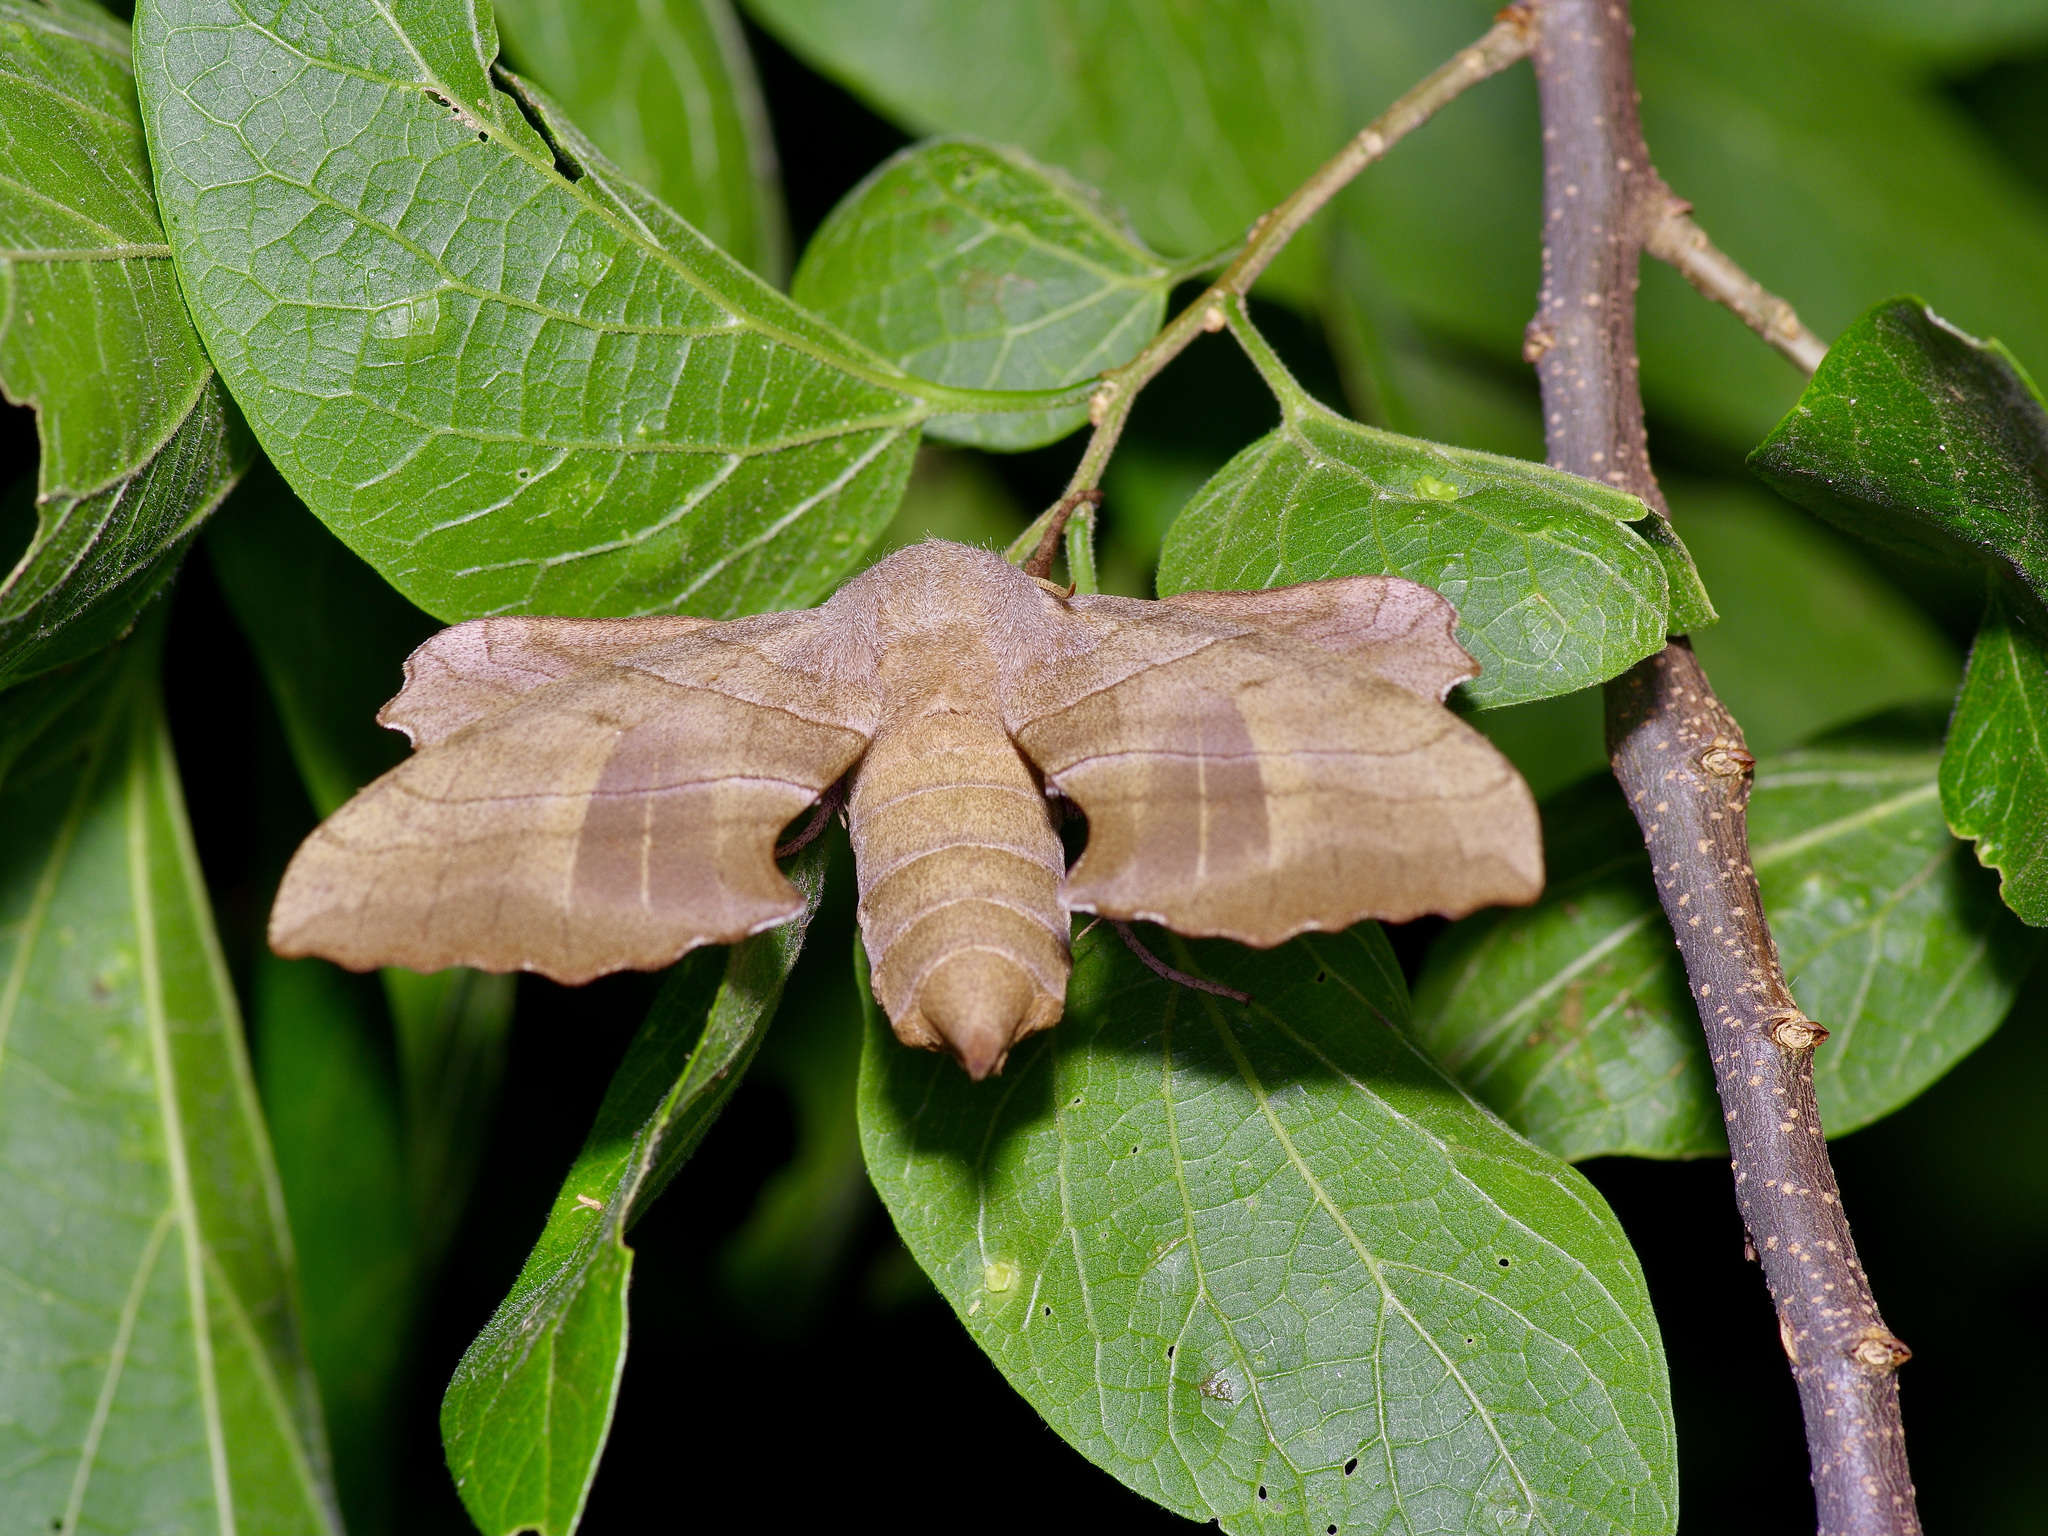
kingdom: Animalia
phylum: Arthropoda
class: Insecta
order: Lepidoptera
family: Sphingidae
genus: Amorpha
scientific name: Amorpha juglandis
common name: Walnut sphinx
